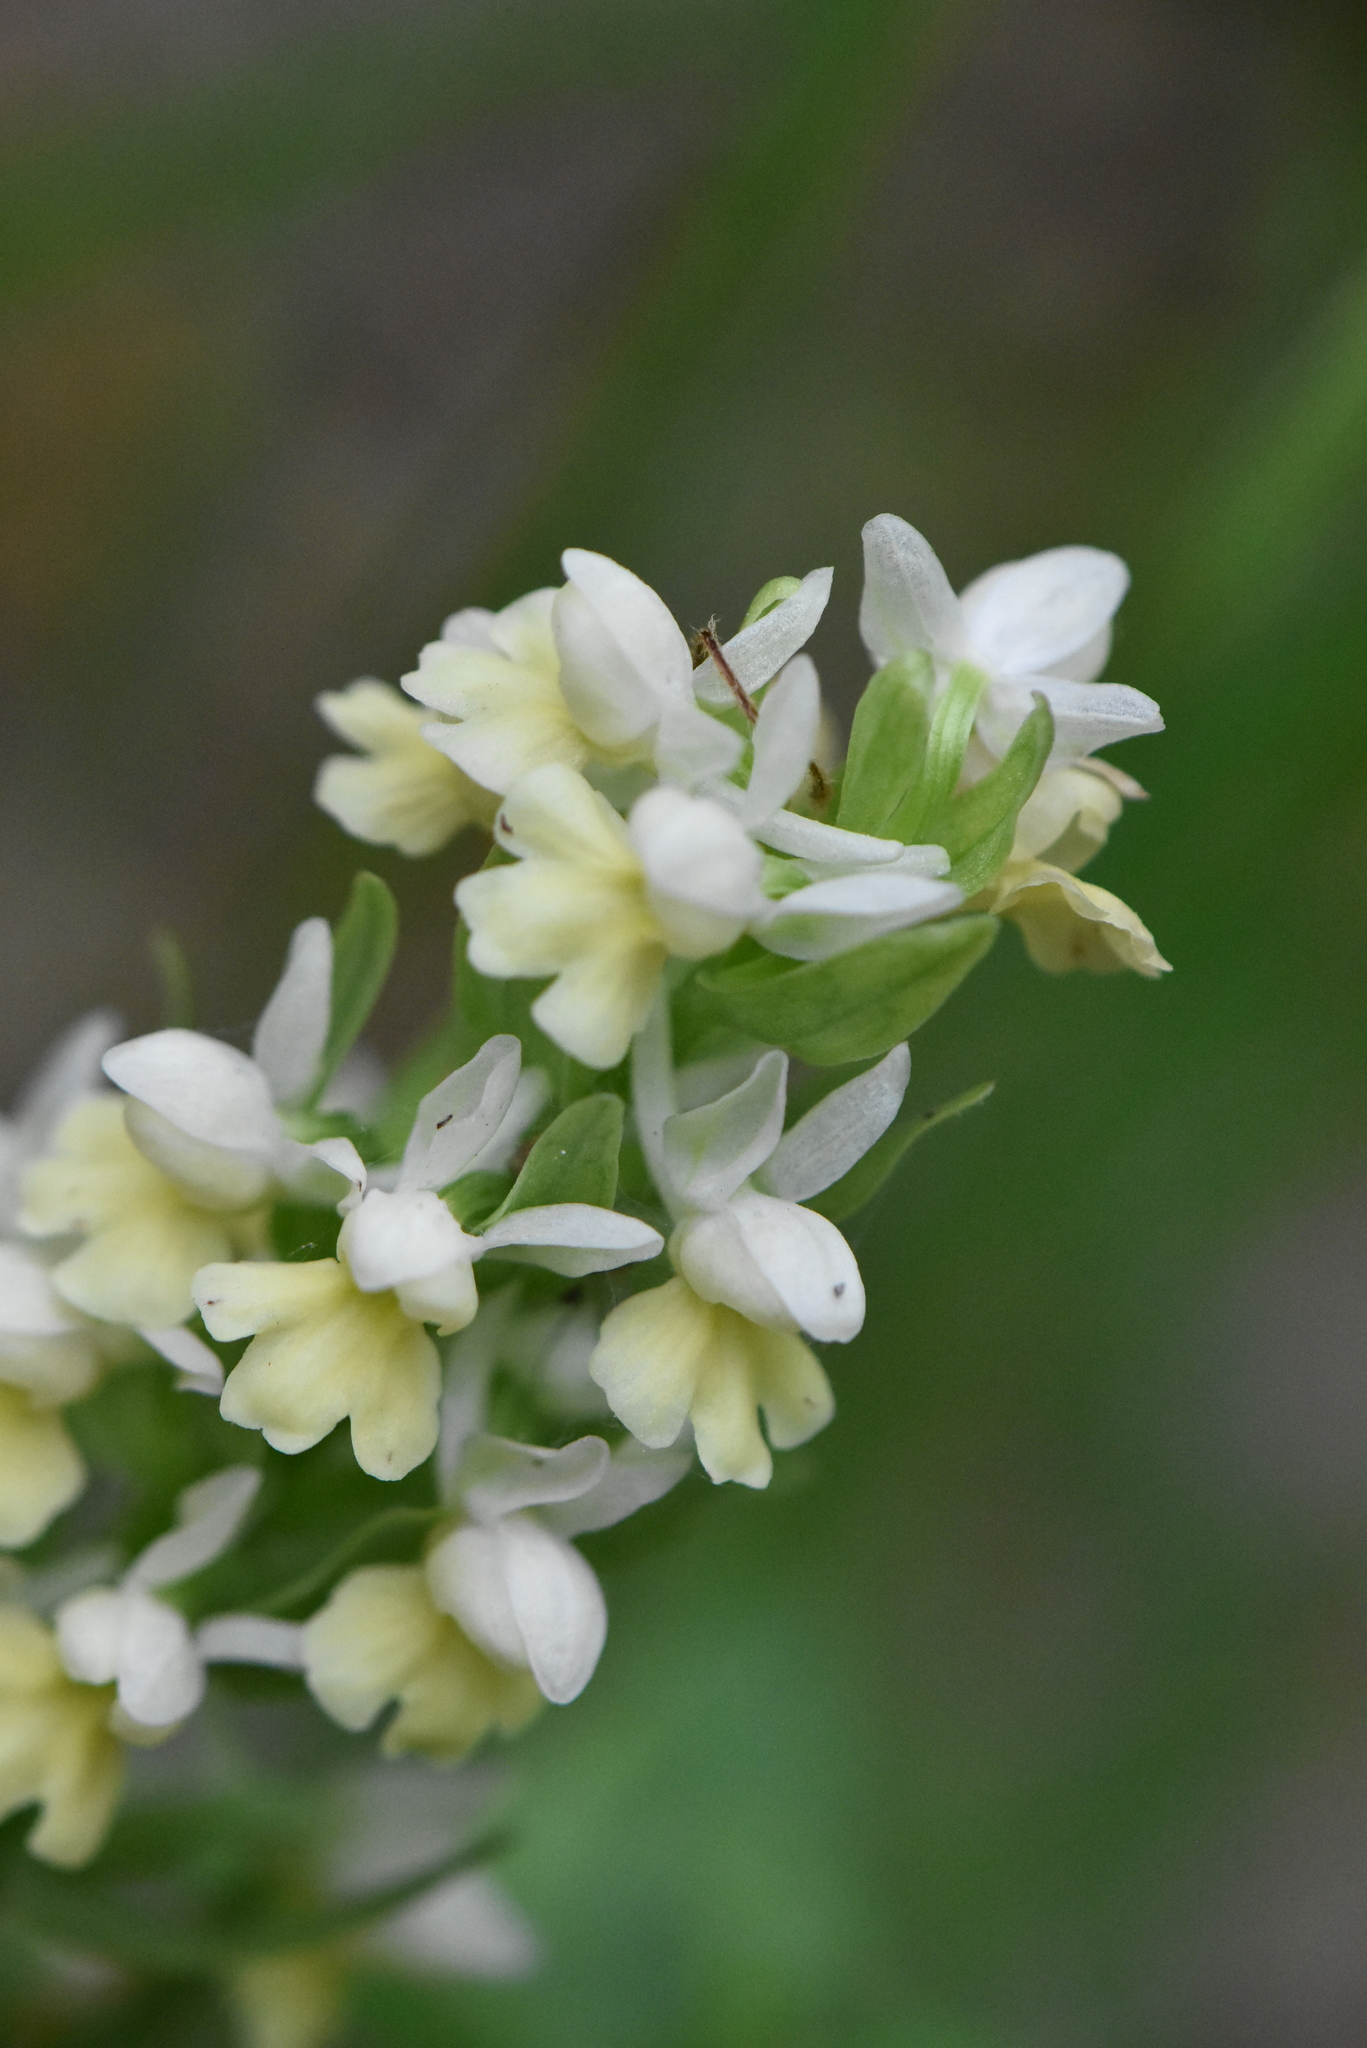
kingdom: Plantae
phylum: Tracheophyta
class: Liliopsida
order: Asparagales
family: Orchidaceae
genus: Dactylorhiza
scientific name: Dactylorhiza romana
